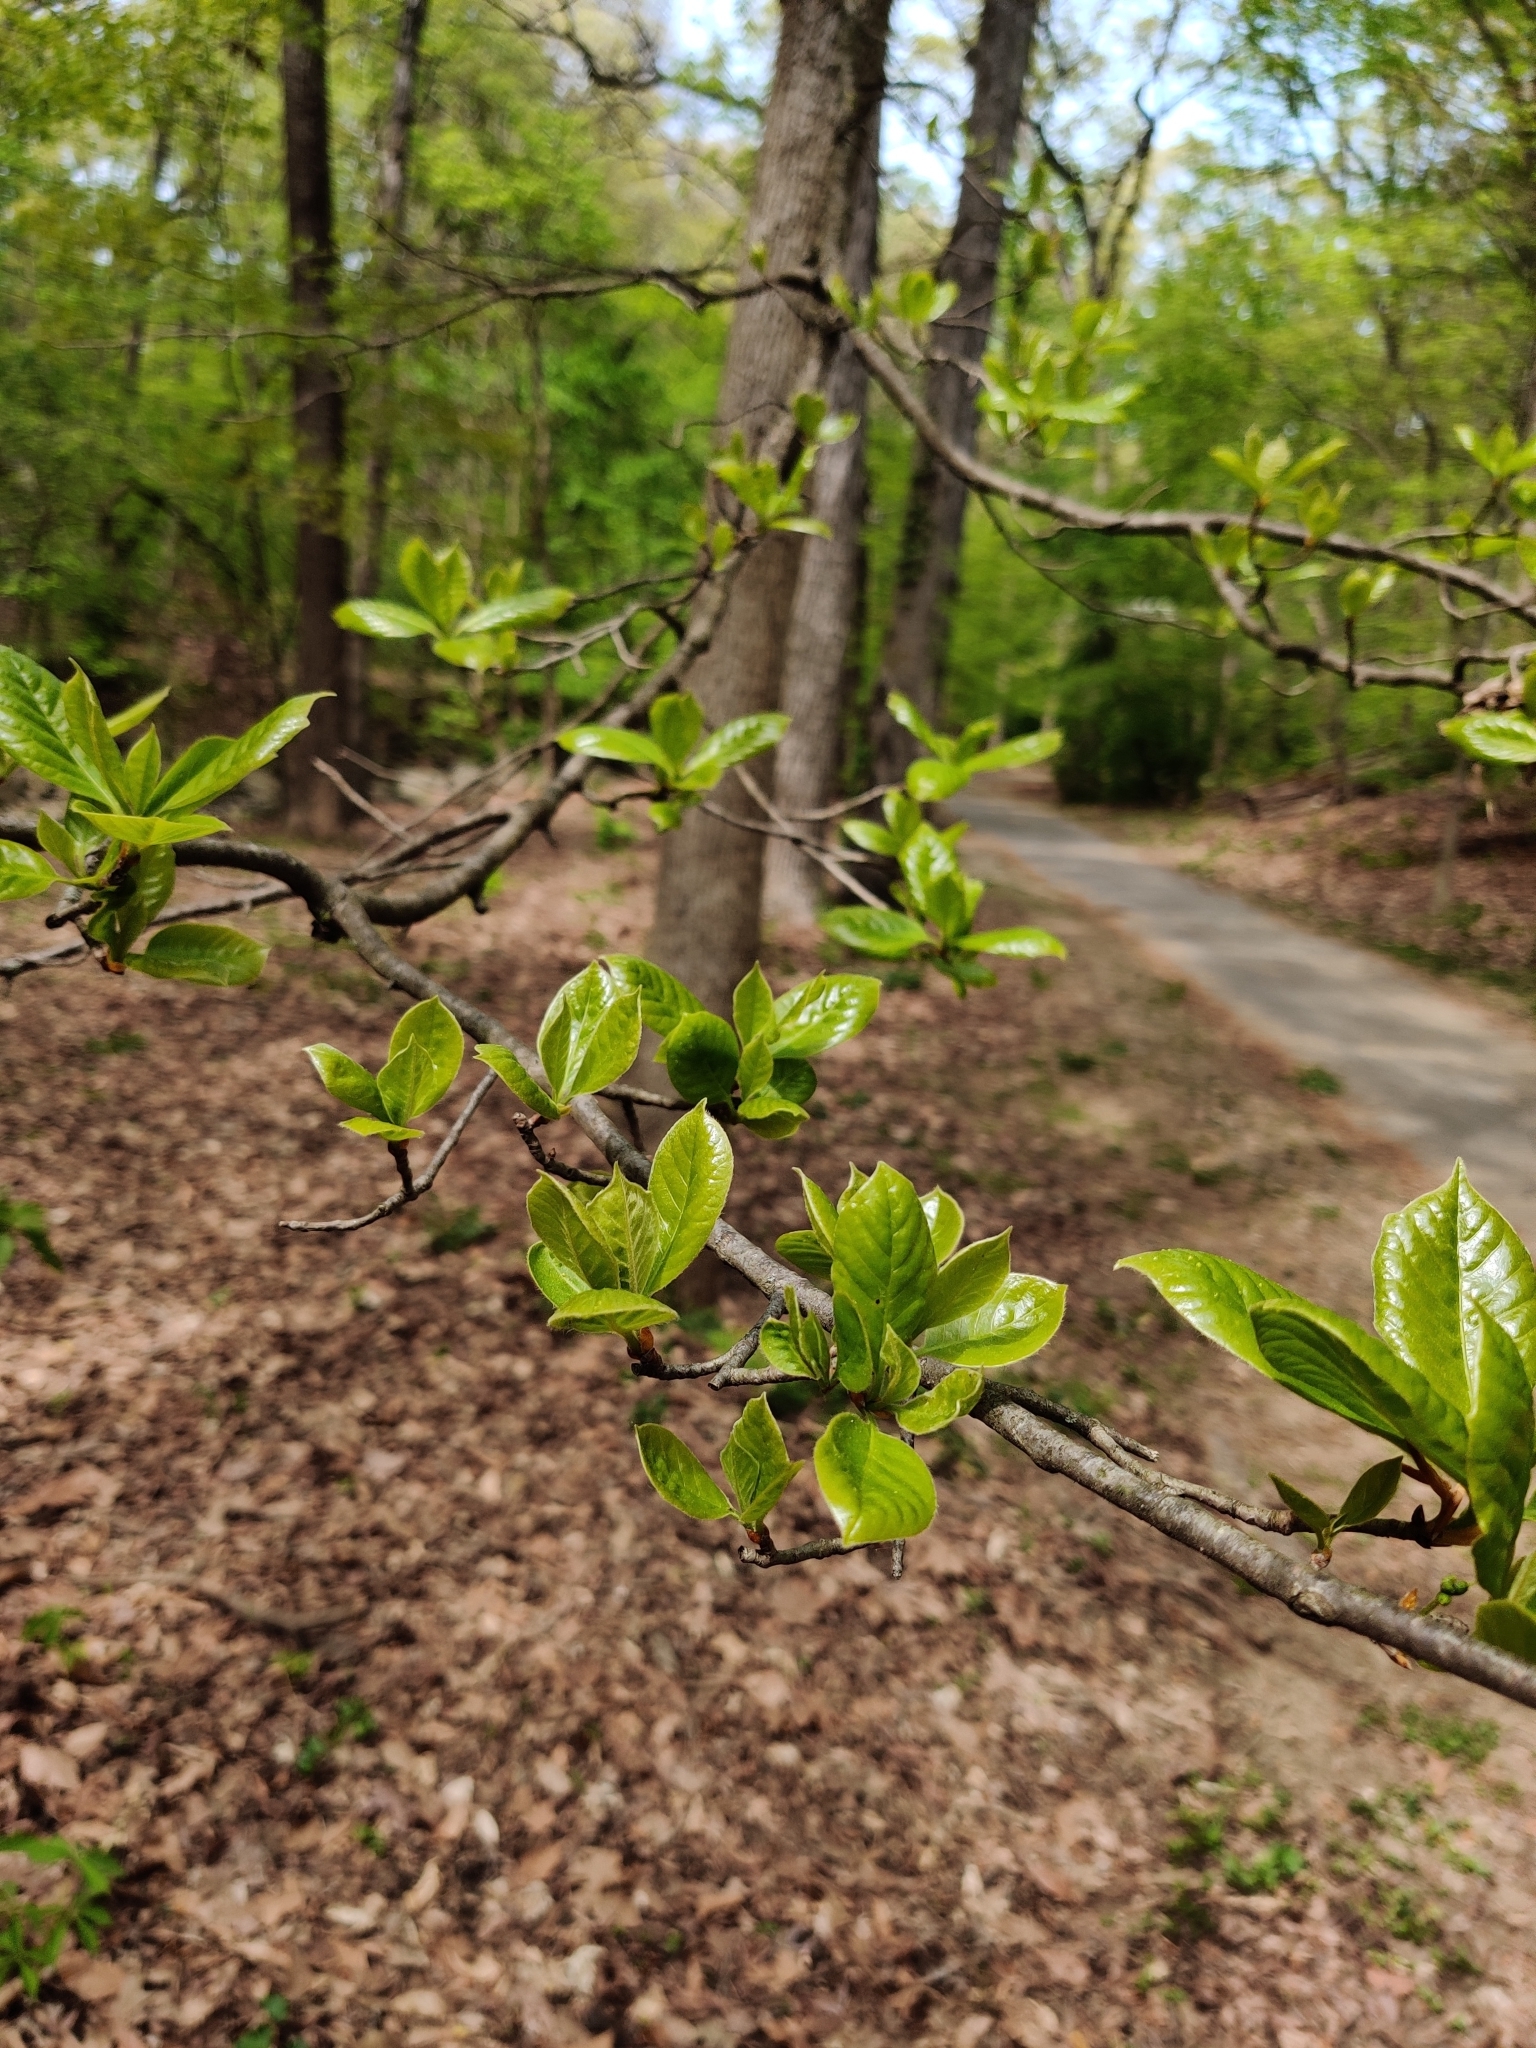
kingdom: Plantae
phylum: Tracheophyta
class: Magnoliopsida
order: Cornales
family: Nyssaceae
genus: Nyssa
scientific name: Nyssa sylvatica
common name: Black tupelo
